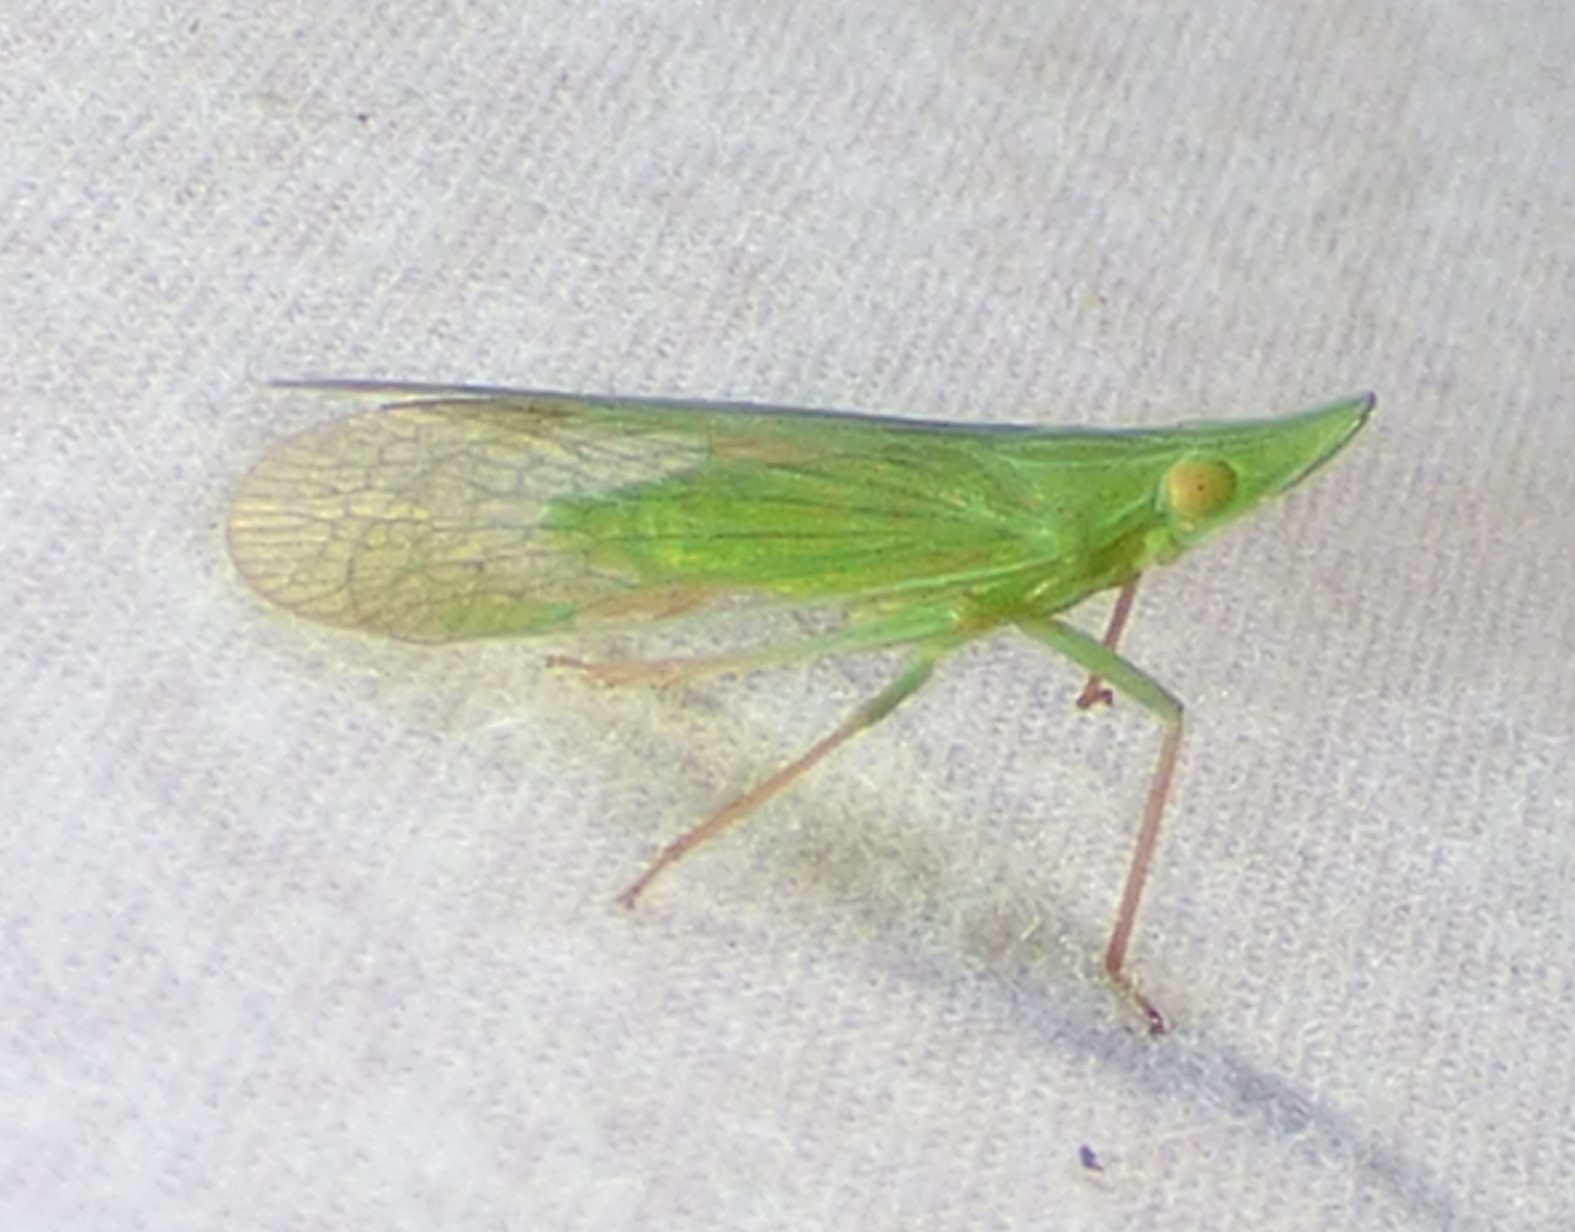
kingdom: Animalia
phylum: Arthropoda
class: Insecta
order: Hemiptera
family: Dictyopharidae
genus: Rhynchomitra
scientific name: Rhynchomitra recurva
